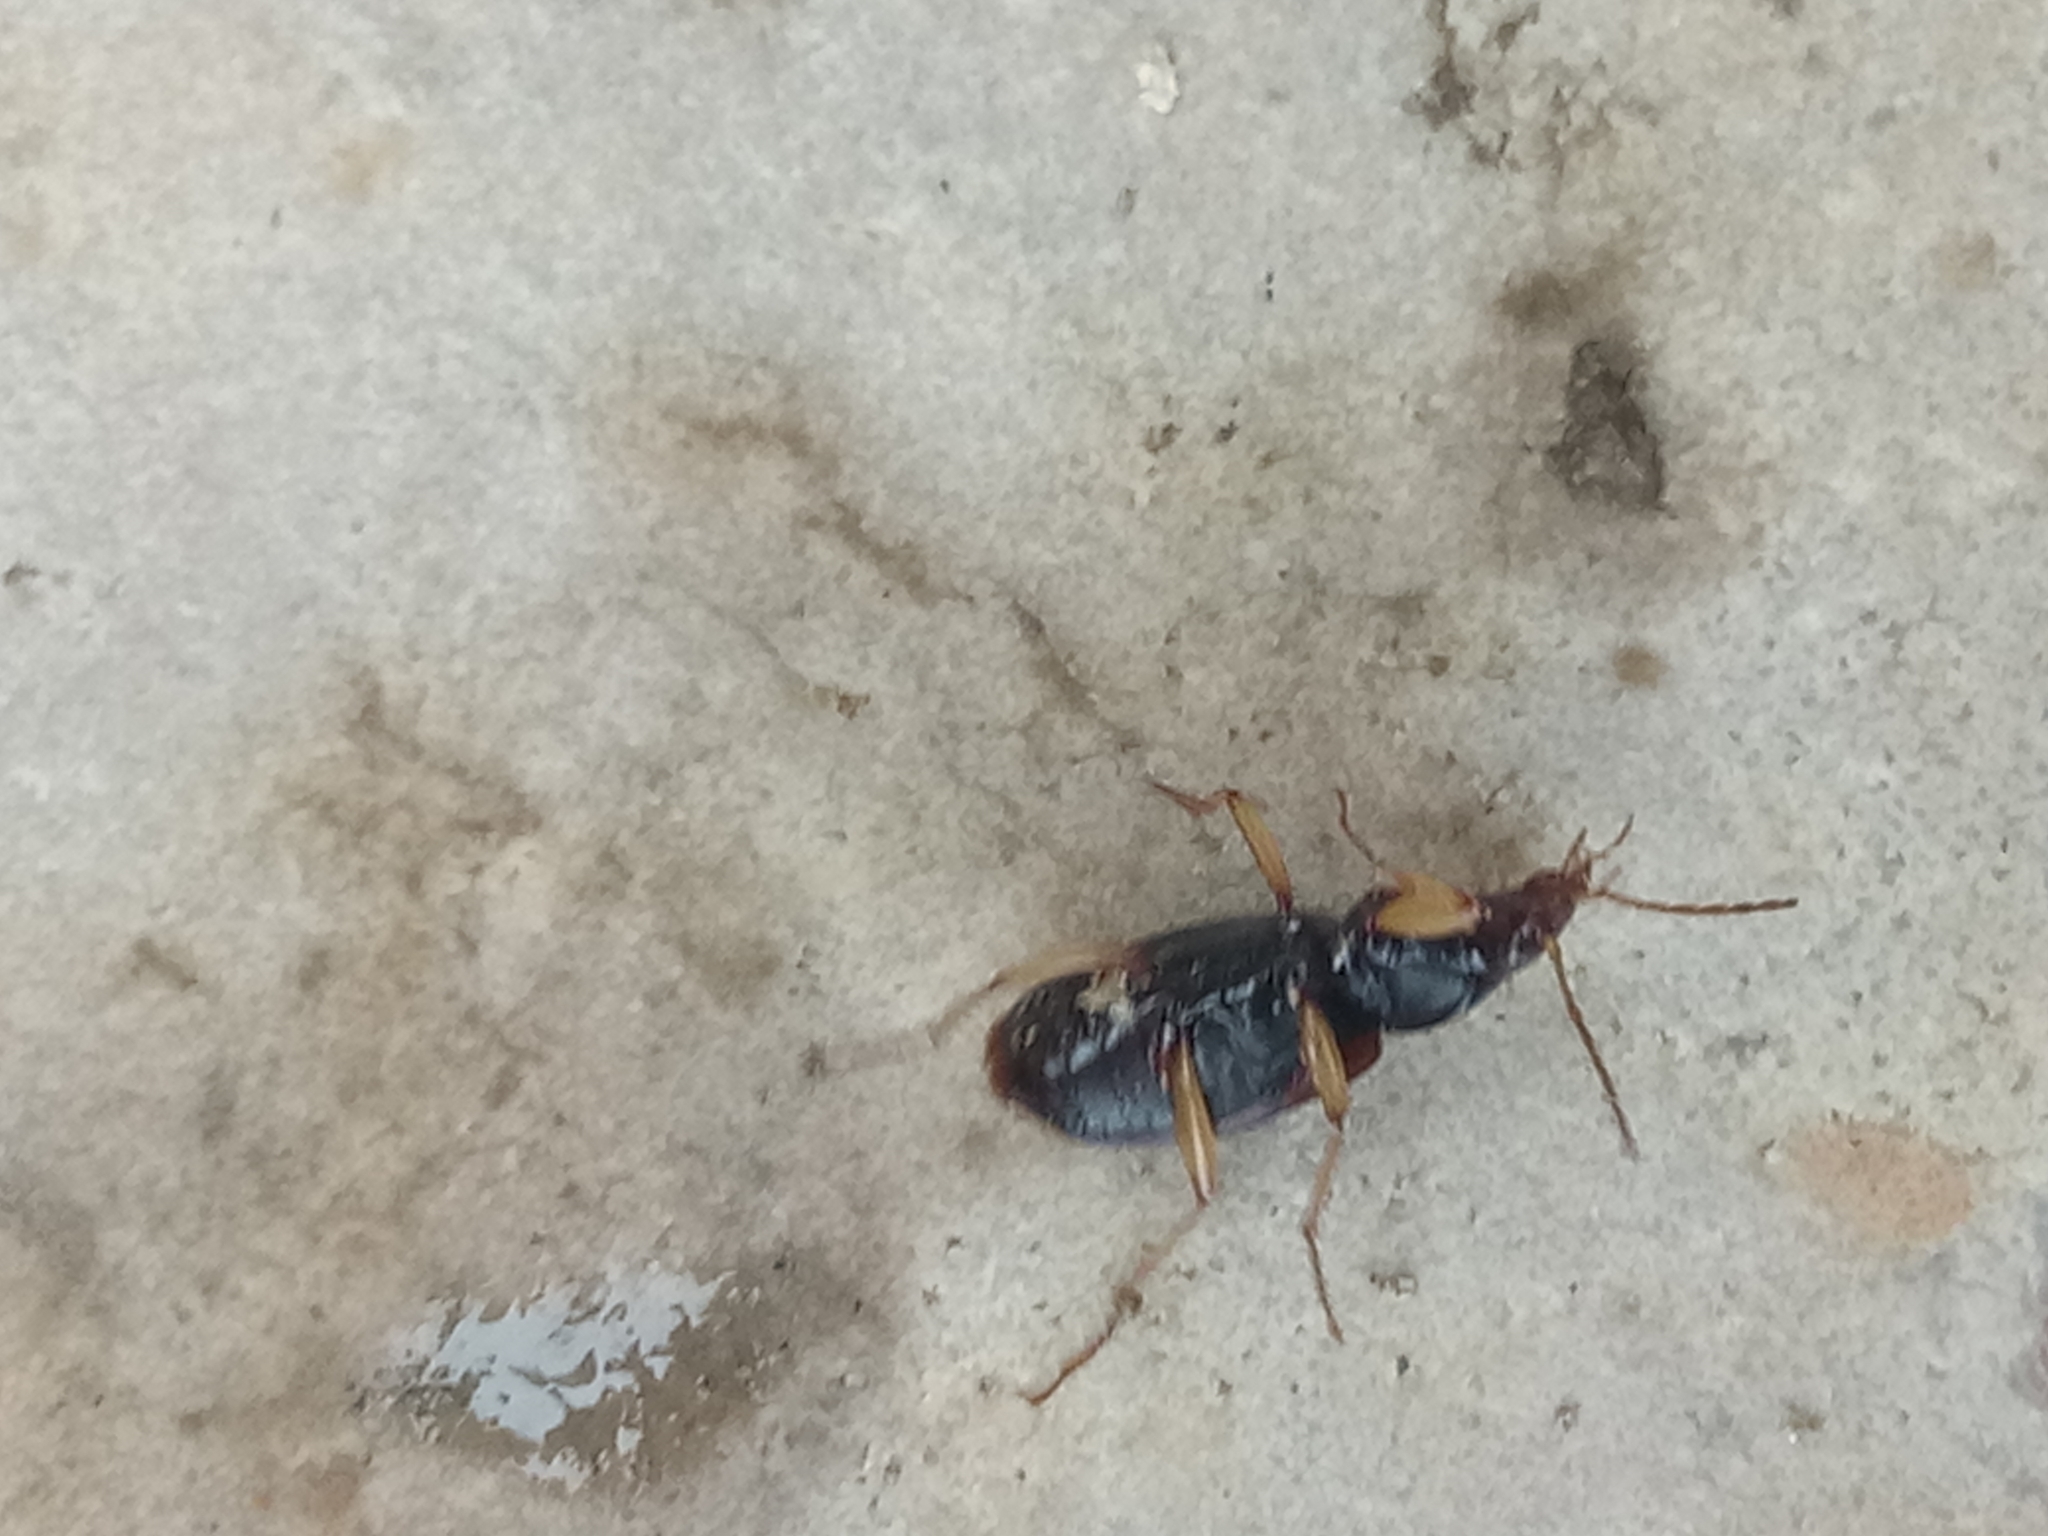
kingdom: Animalia
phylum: Arthropoda
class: Insecta
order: Coleoptera
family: Carabidae
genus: Paranchus
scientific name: Paranchus albipes
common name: White-legged harp ground beetle
